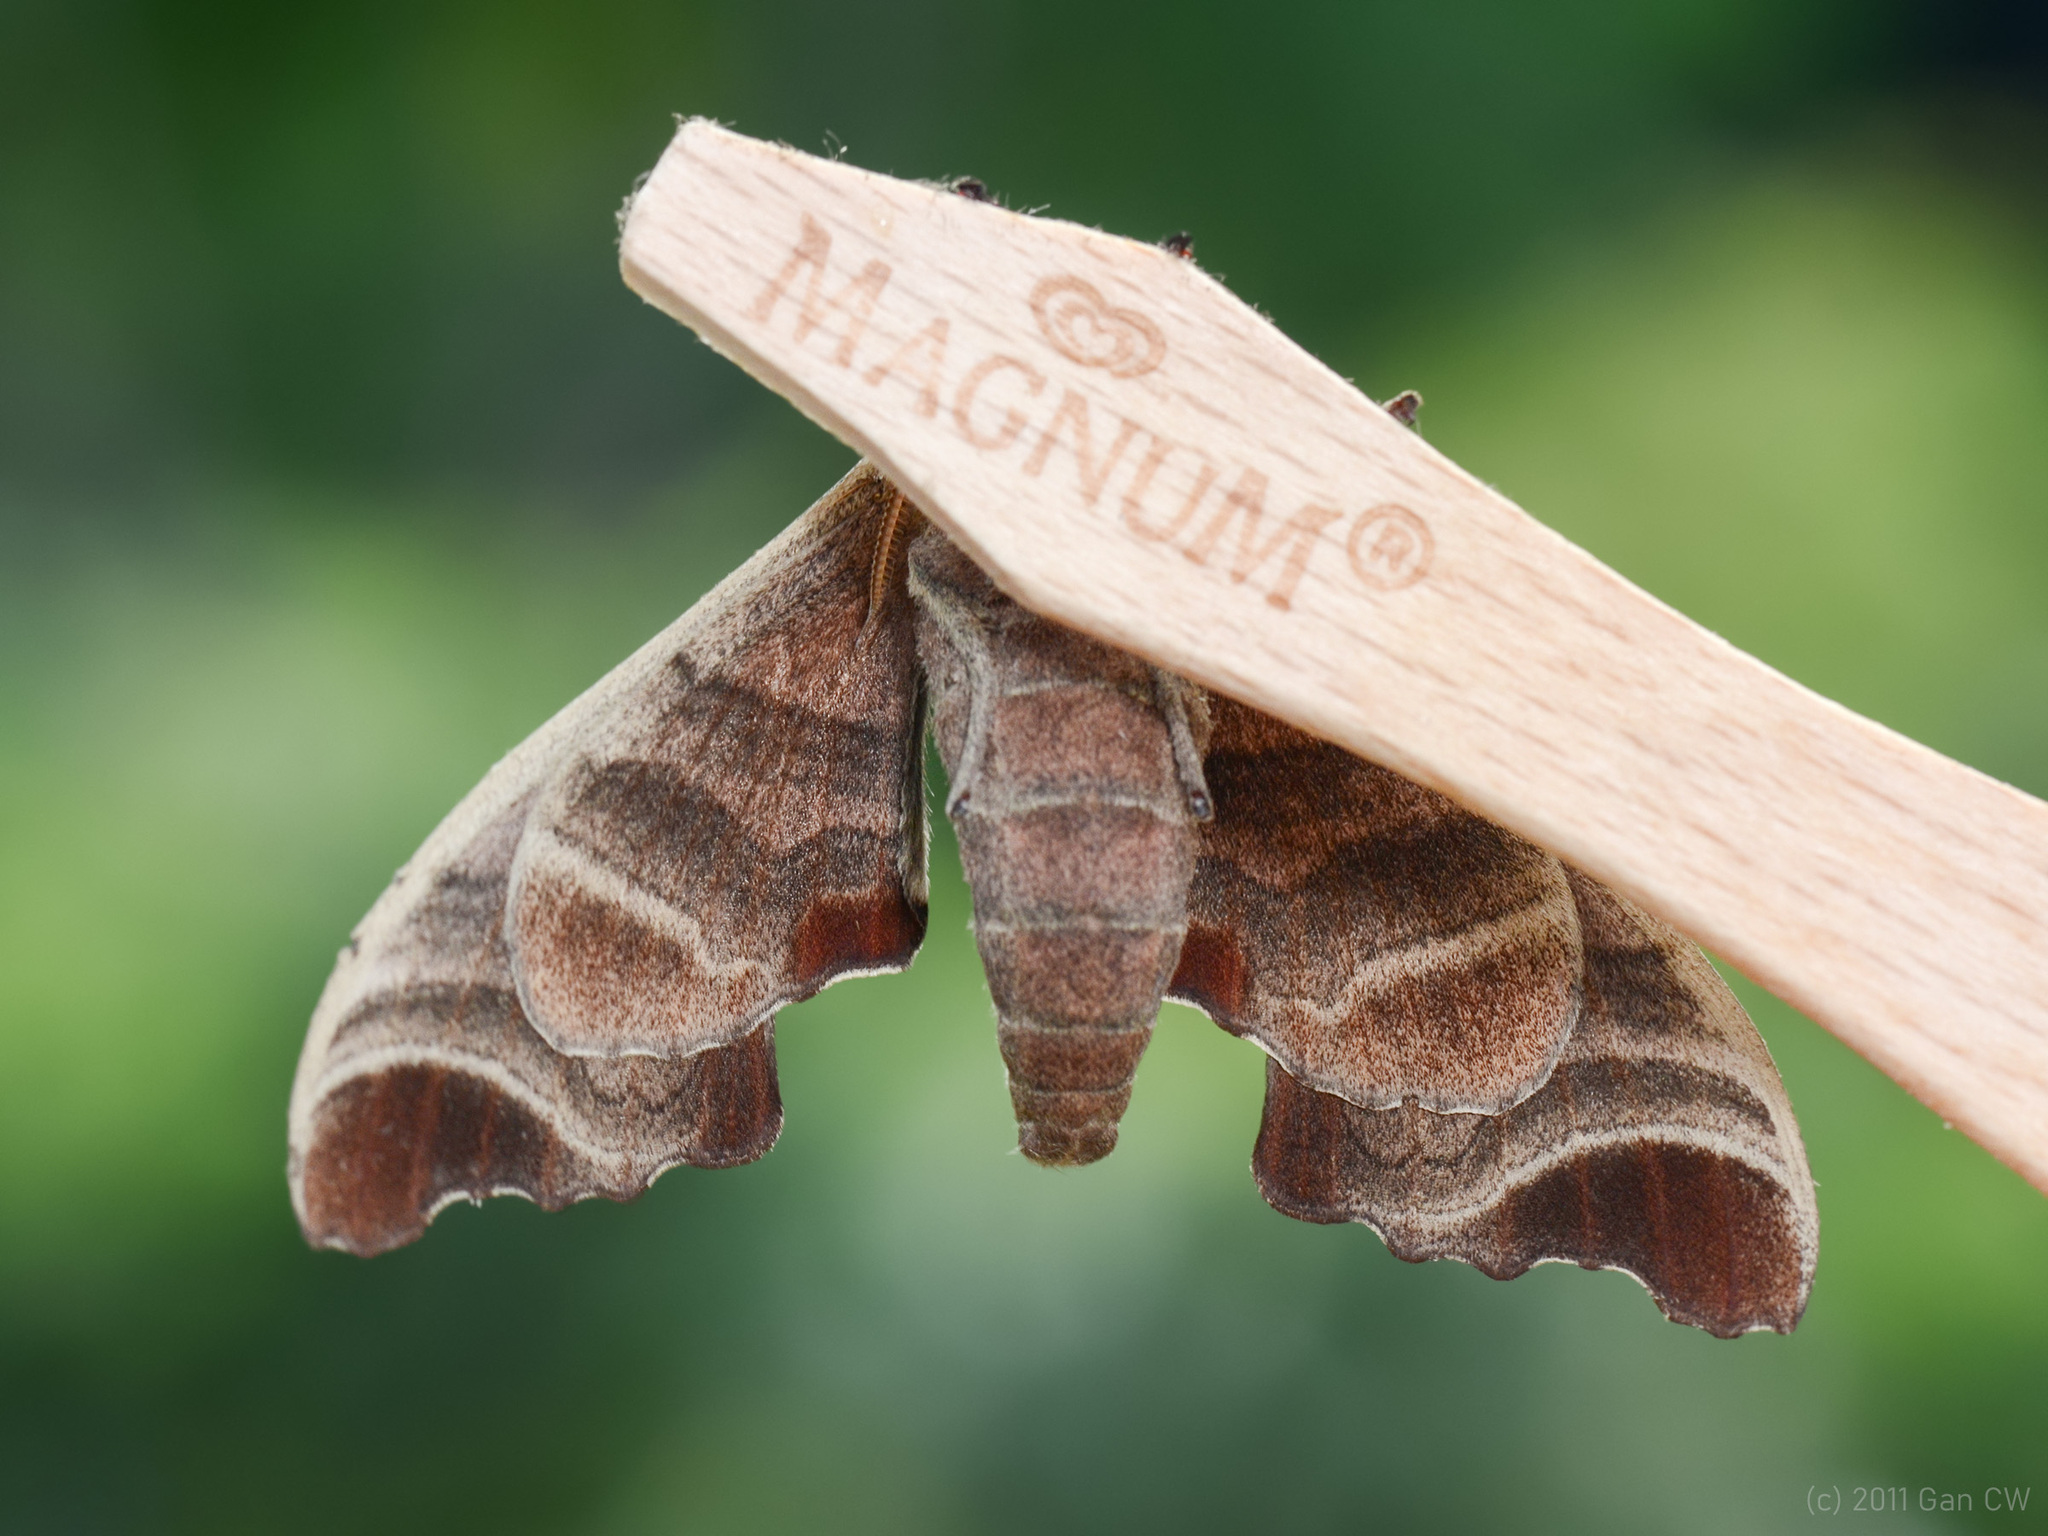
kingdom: Animalia
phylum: Arthropoda
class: Insecta
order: Lepidoptera
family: Sphingidae
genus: Marumba
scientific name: Marumba amboinicus
